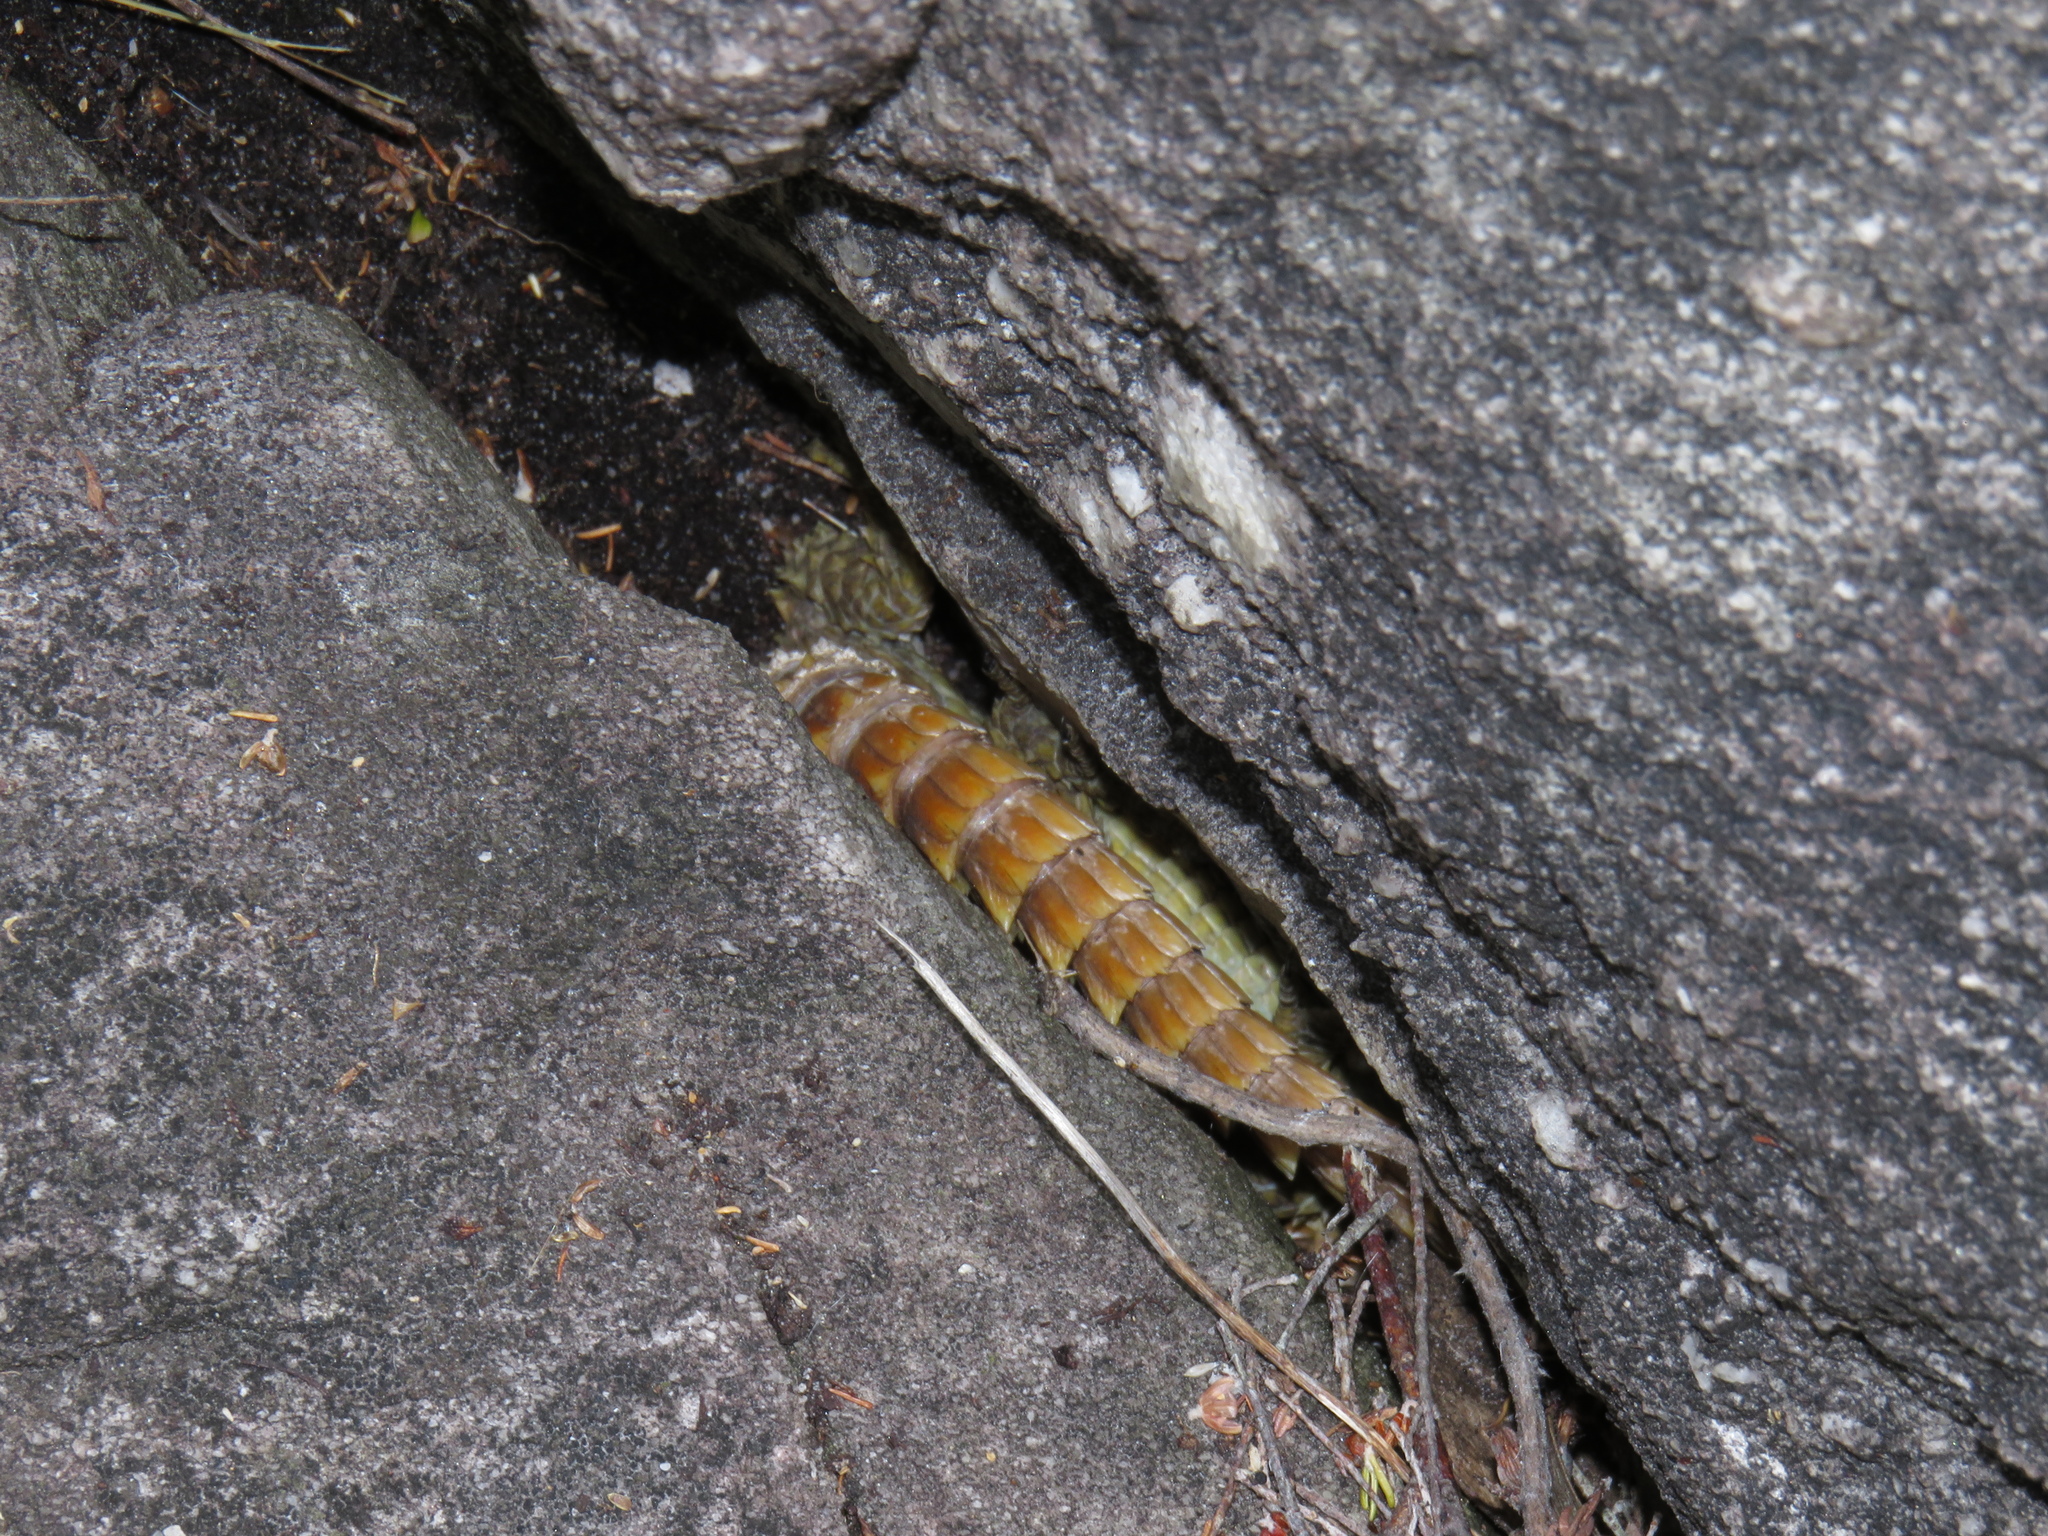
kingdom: Animalia
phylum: Chordata
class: Squamata
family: Cordylidae
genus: Cordylus
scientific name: Cordylus cordylus
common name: Cape girdled lizard
